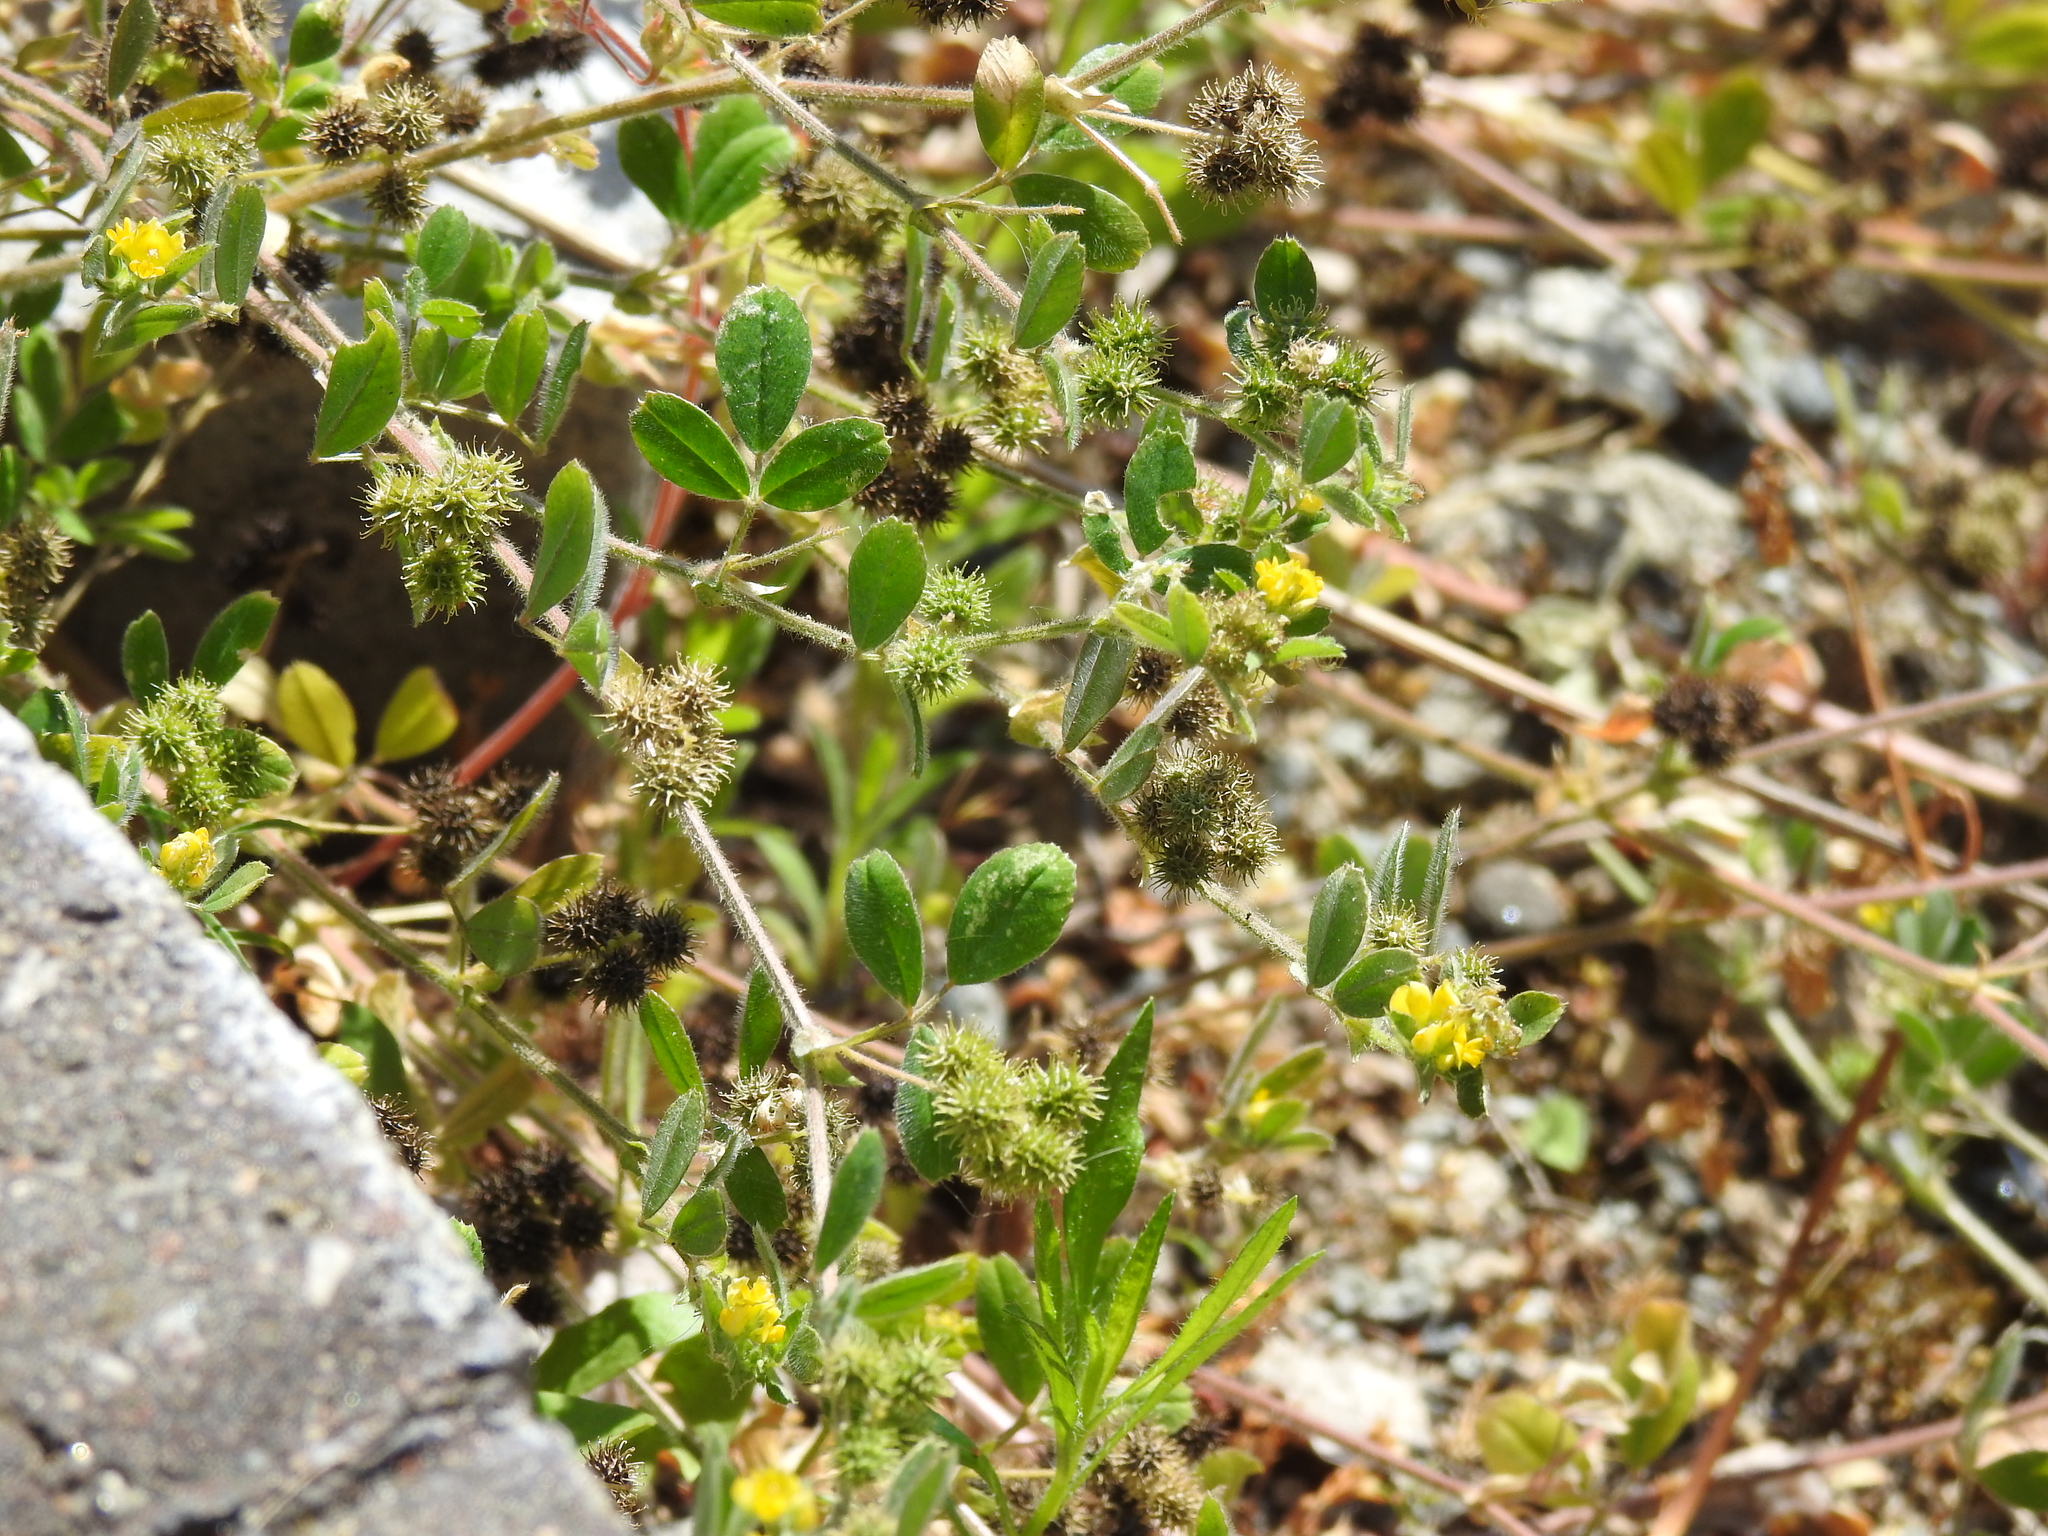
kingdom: Plantae
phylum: Tracheophyta
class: Magnoliopsida
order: Fabales
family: Fabaceae
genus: Medicago
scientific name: Medicago minima
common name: Little bur-clover
